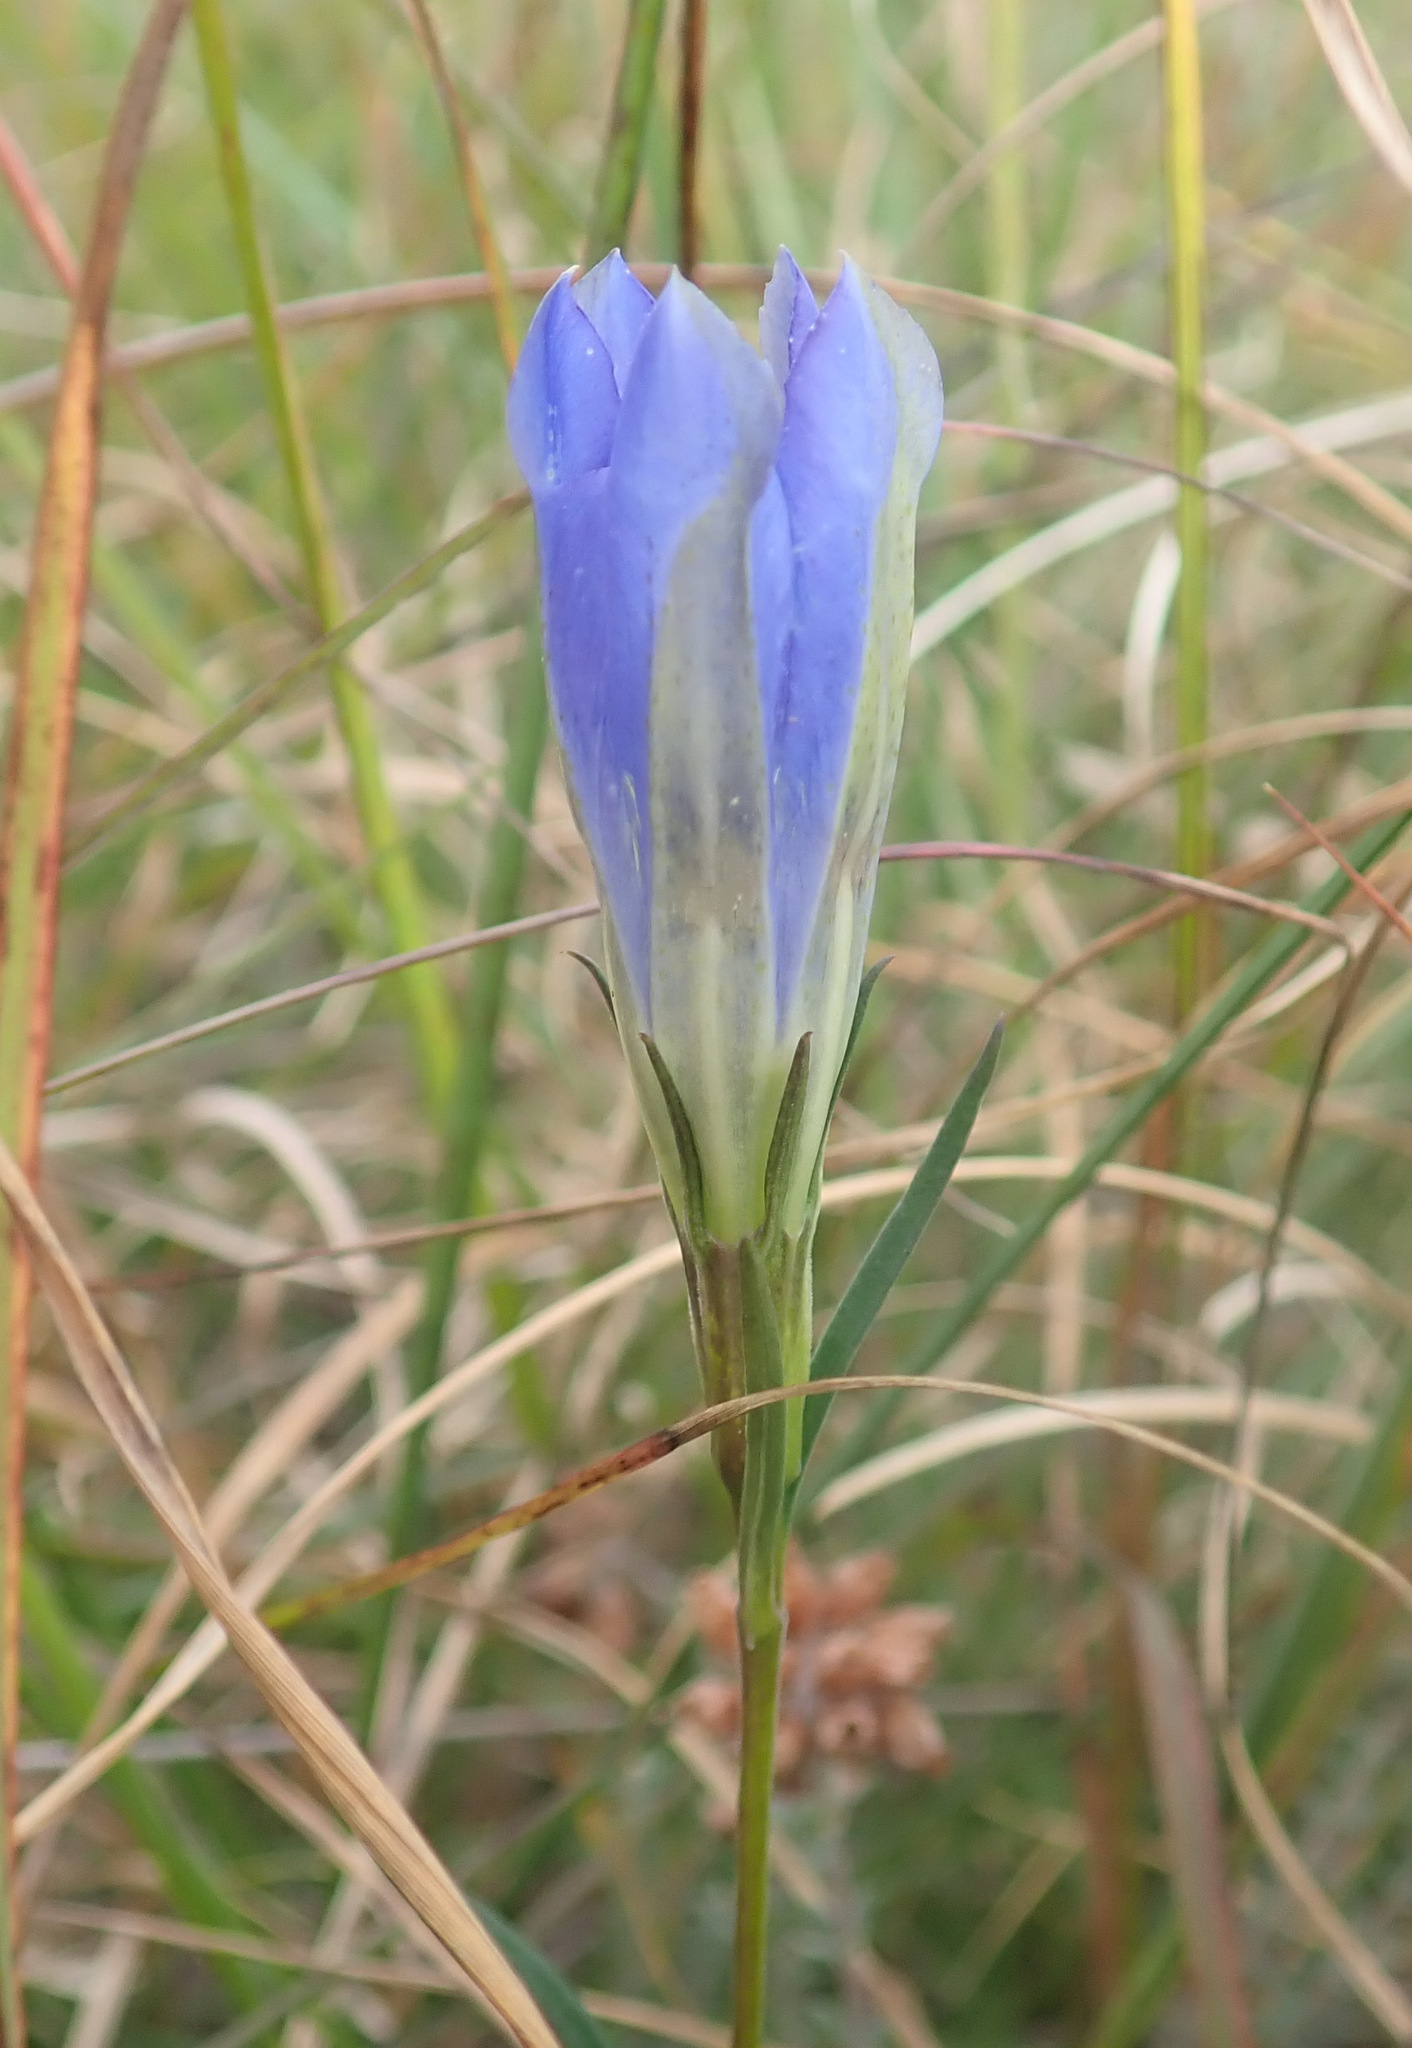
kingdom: Plantae
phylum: Tracheophyta
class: Magnoliopsida
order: Gentianales
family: Gentianaceae
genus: Gentiana
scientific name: Gentiana pneumonanthe
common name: Marsh gentian
